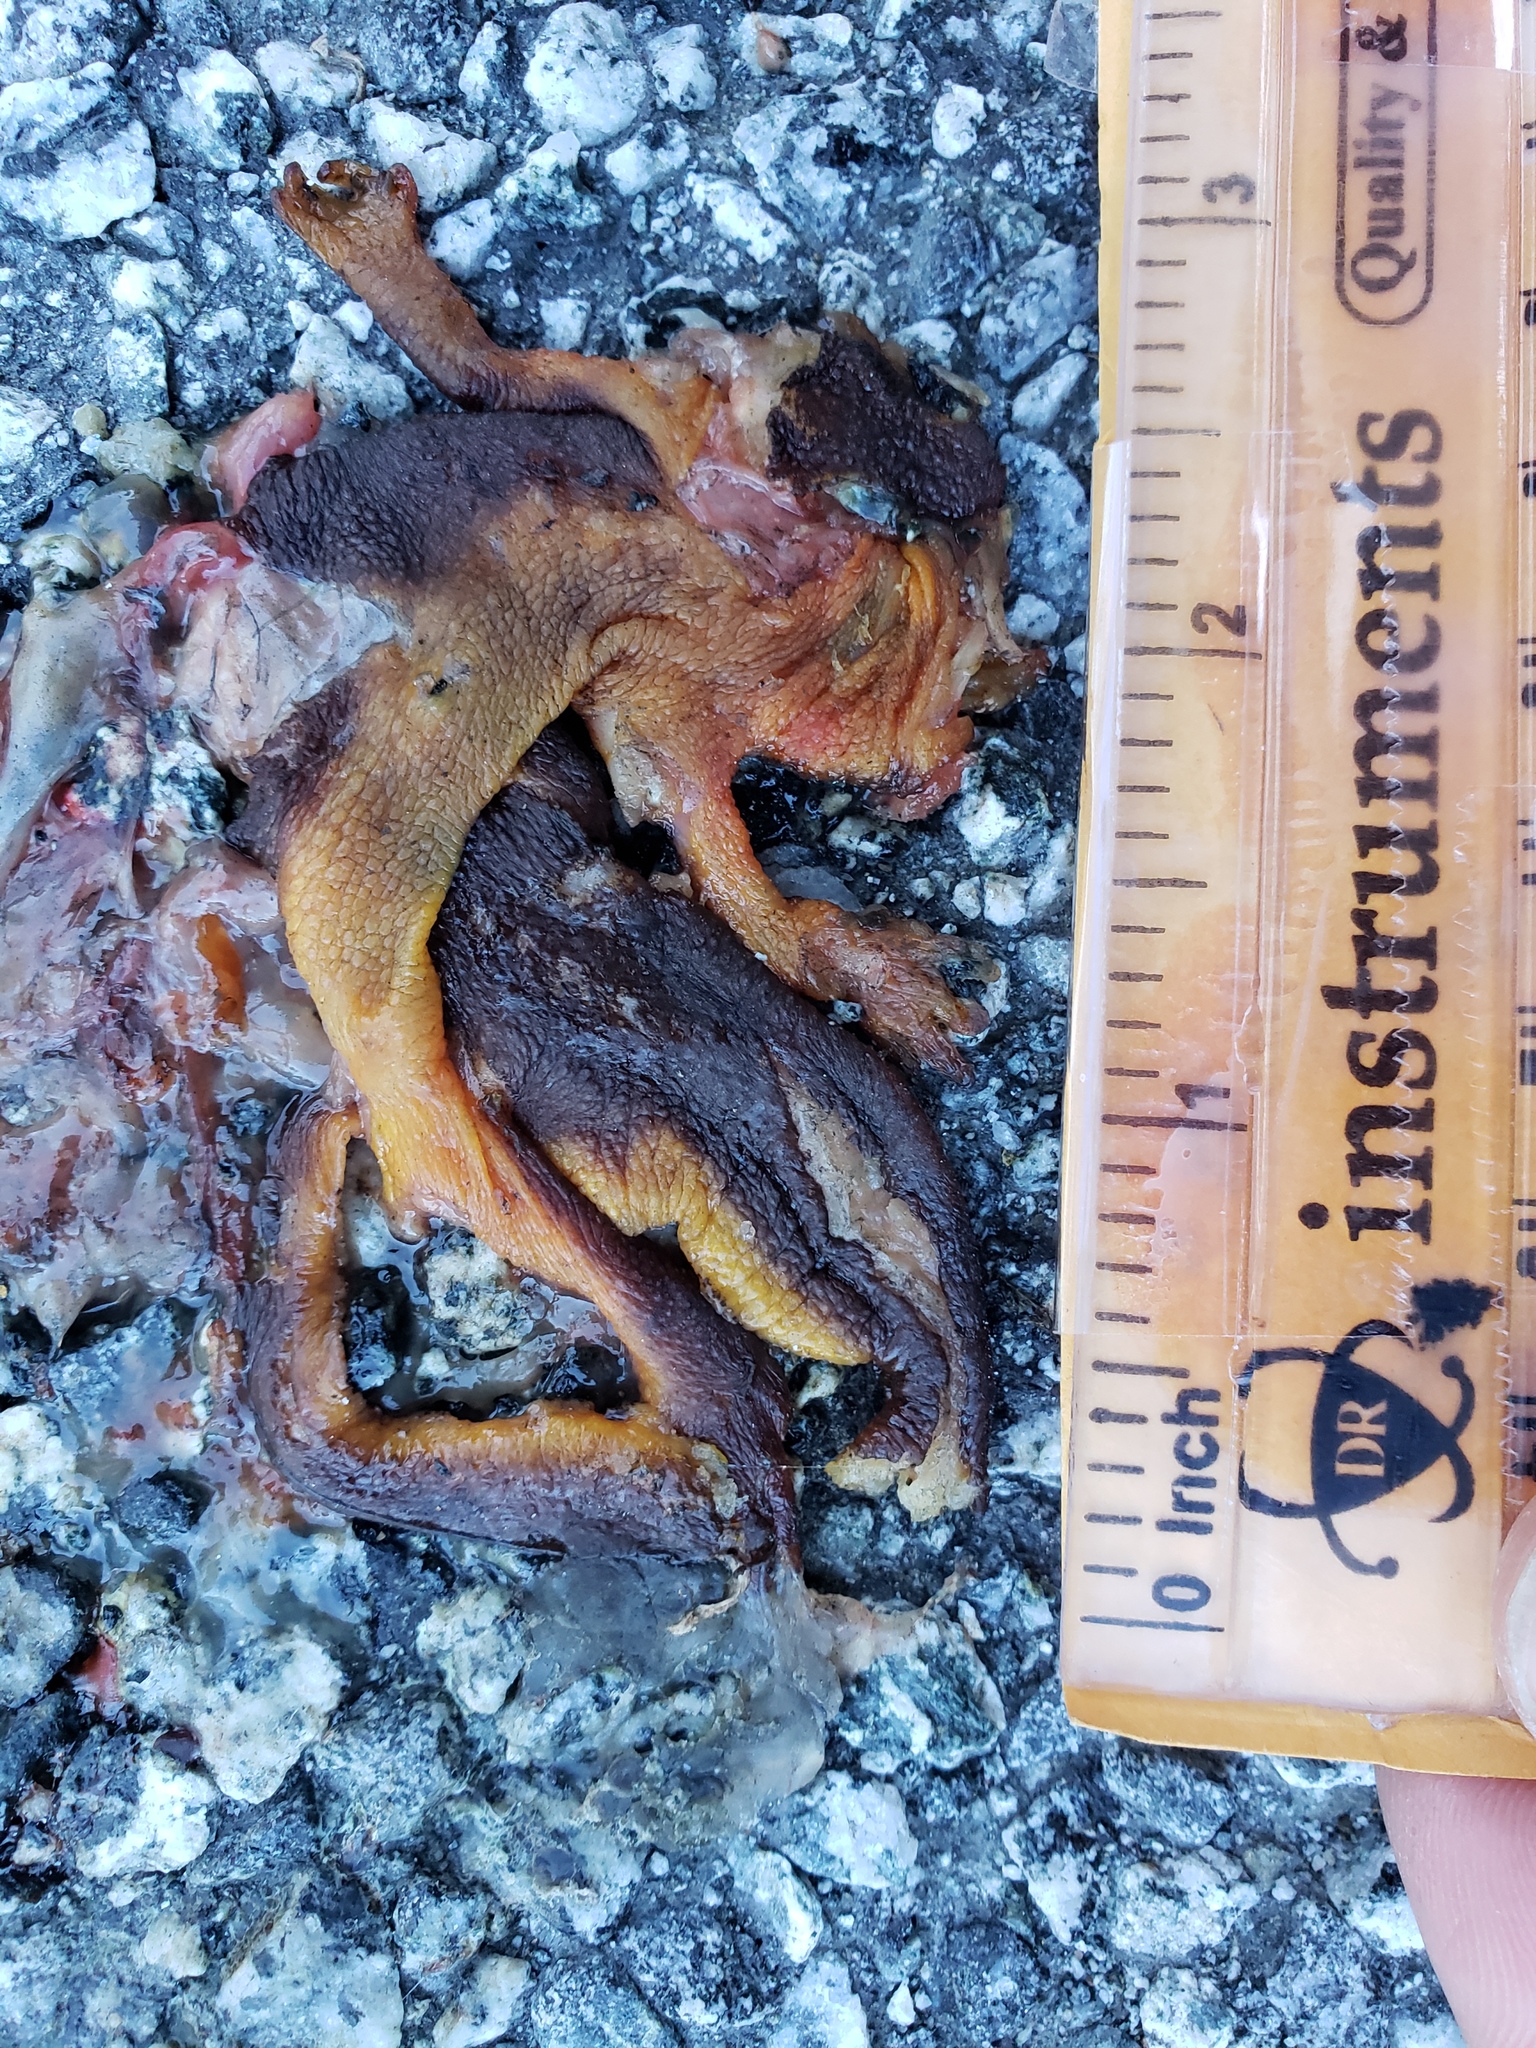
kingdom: Animalia
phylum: Chordata
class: Amphibia
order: Caudata
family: Salamandridae
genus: Taricha
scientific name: Taricha
